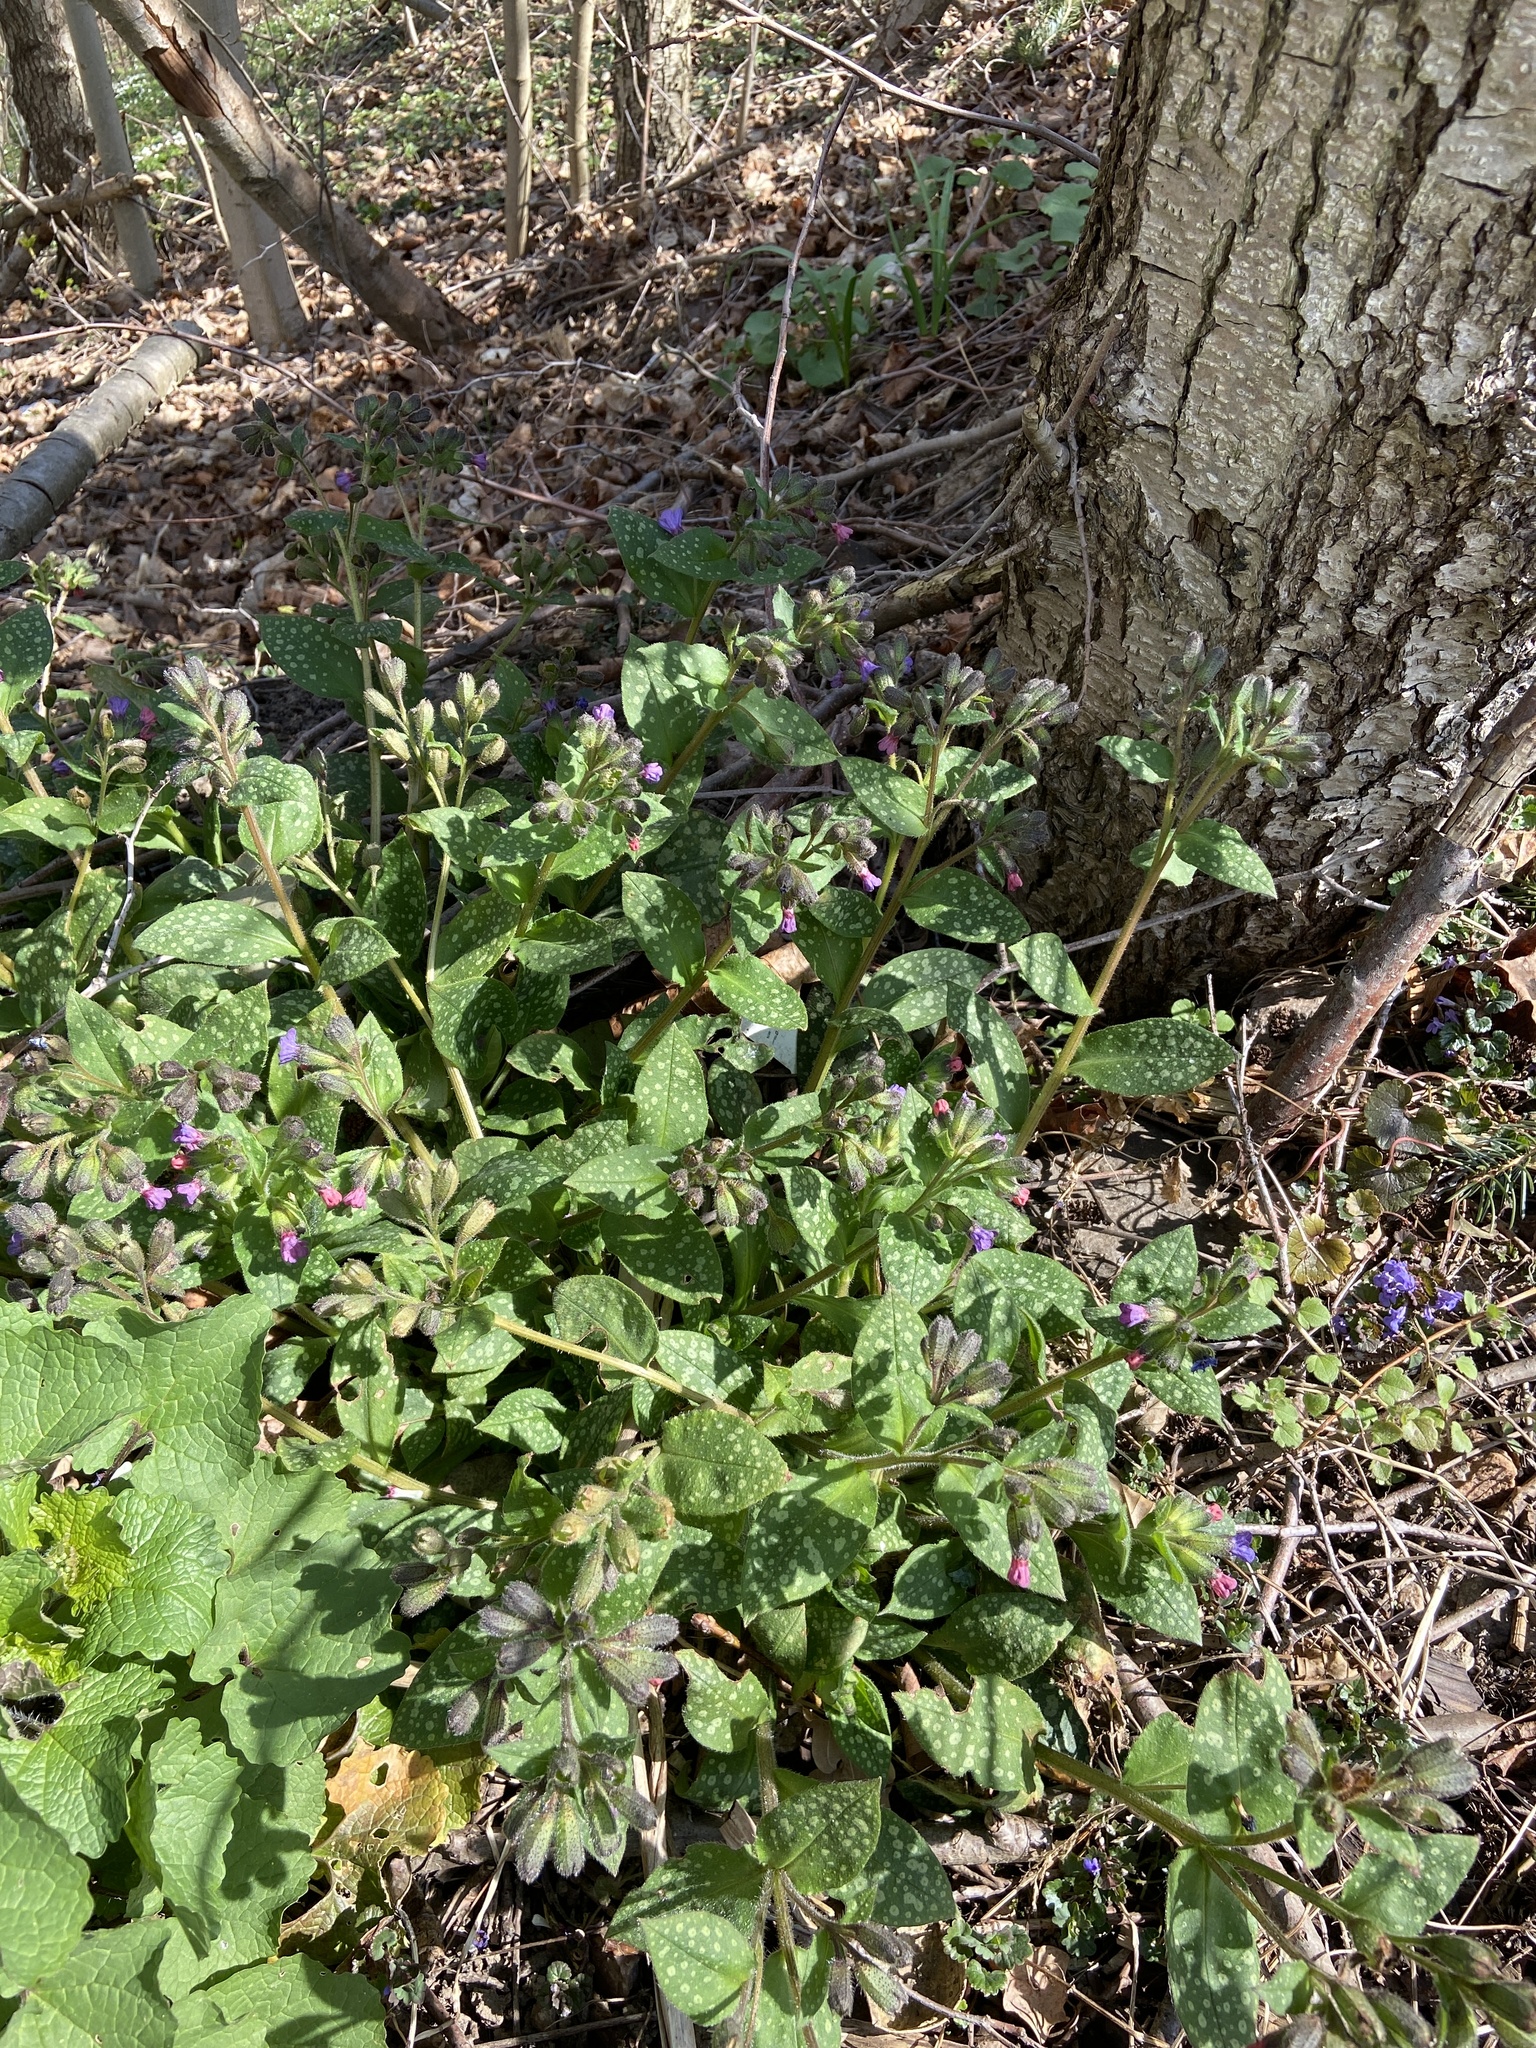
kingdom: Plantae
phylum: Tracheophyta
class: Magnoliopsida
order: Boraginales
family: Boraginaceae
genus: Pulmonaria
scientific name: Pulmonaria officinalis
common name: Lungwort
